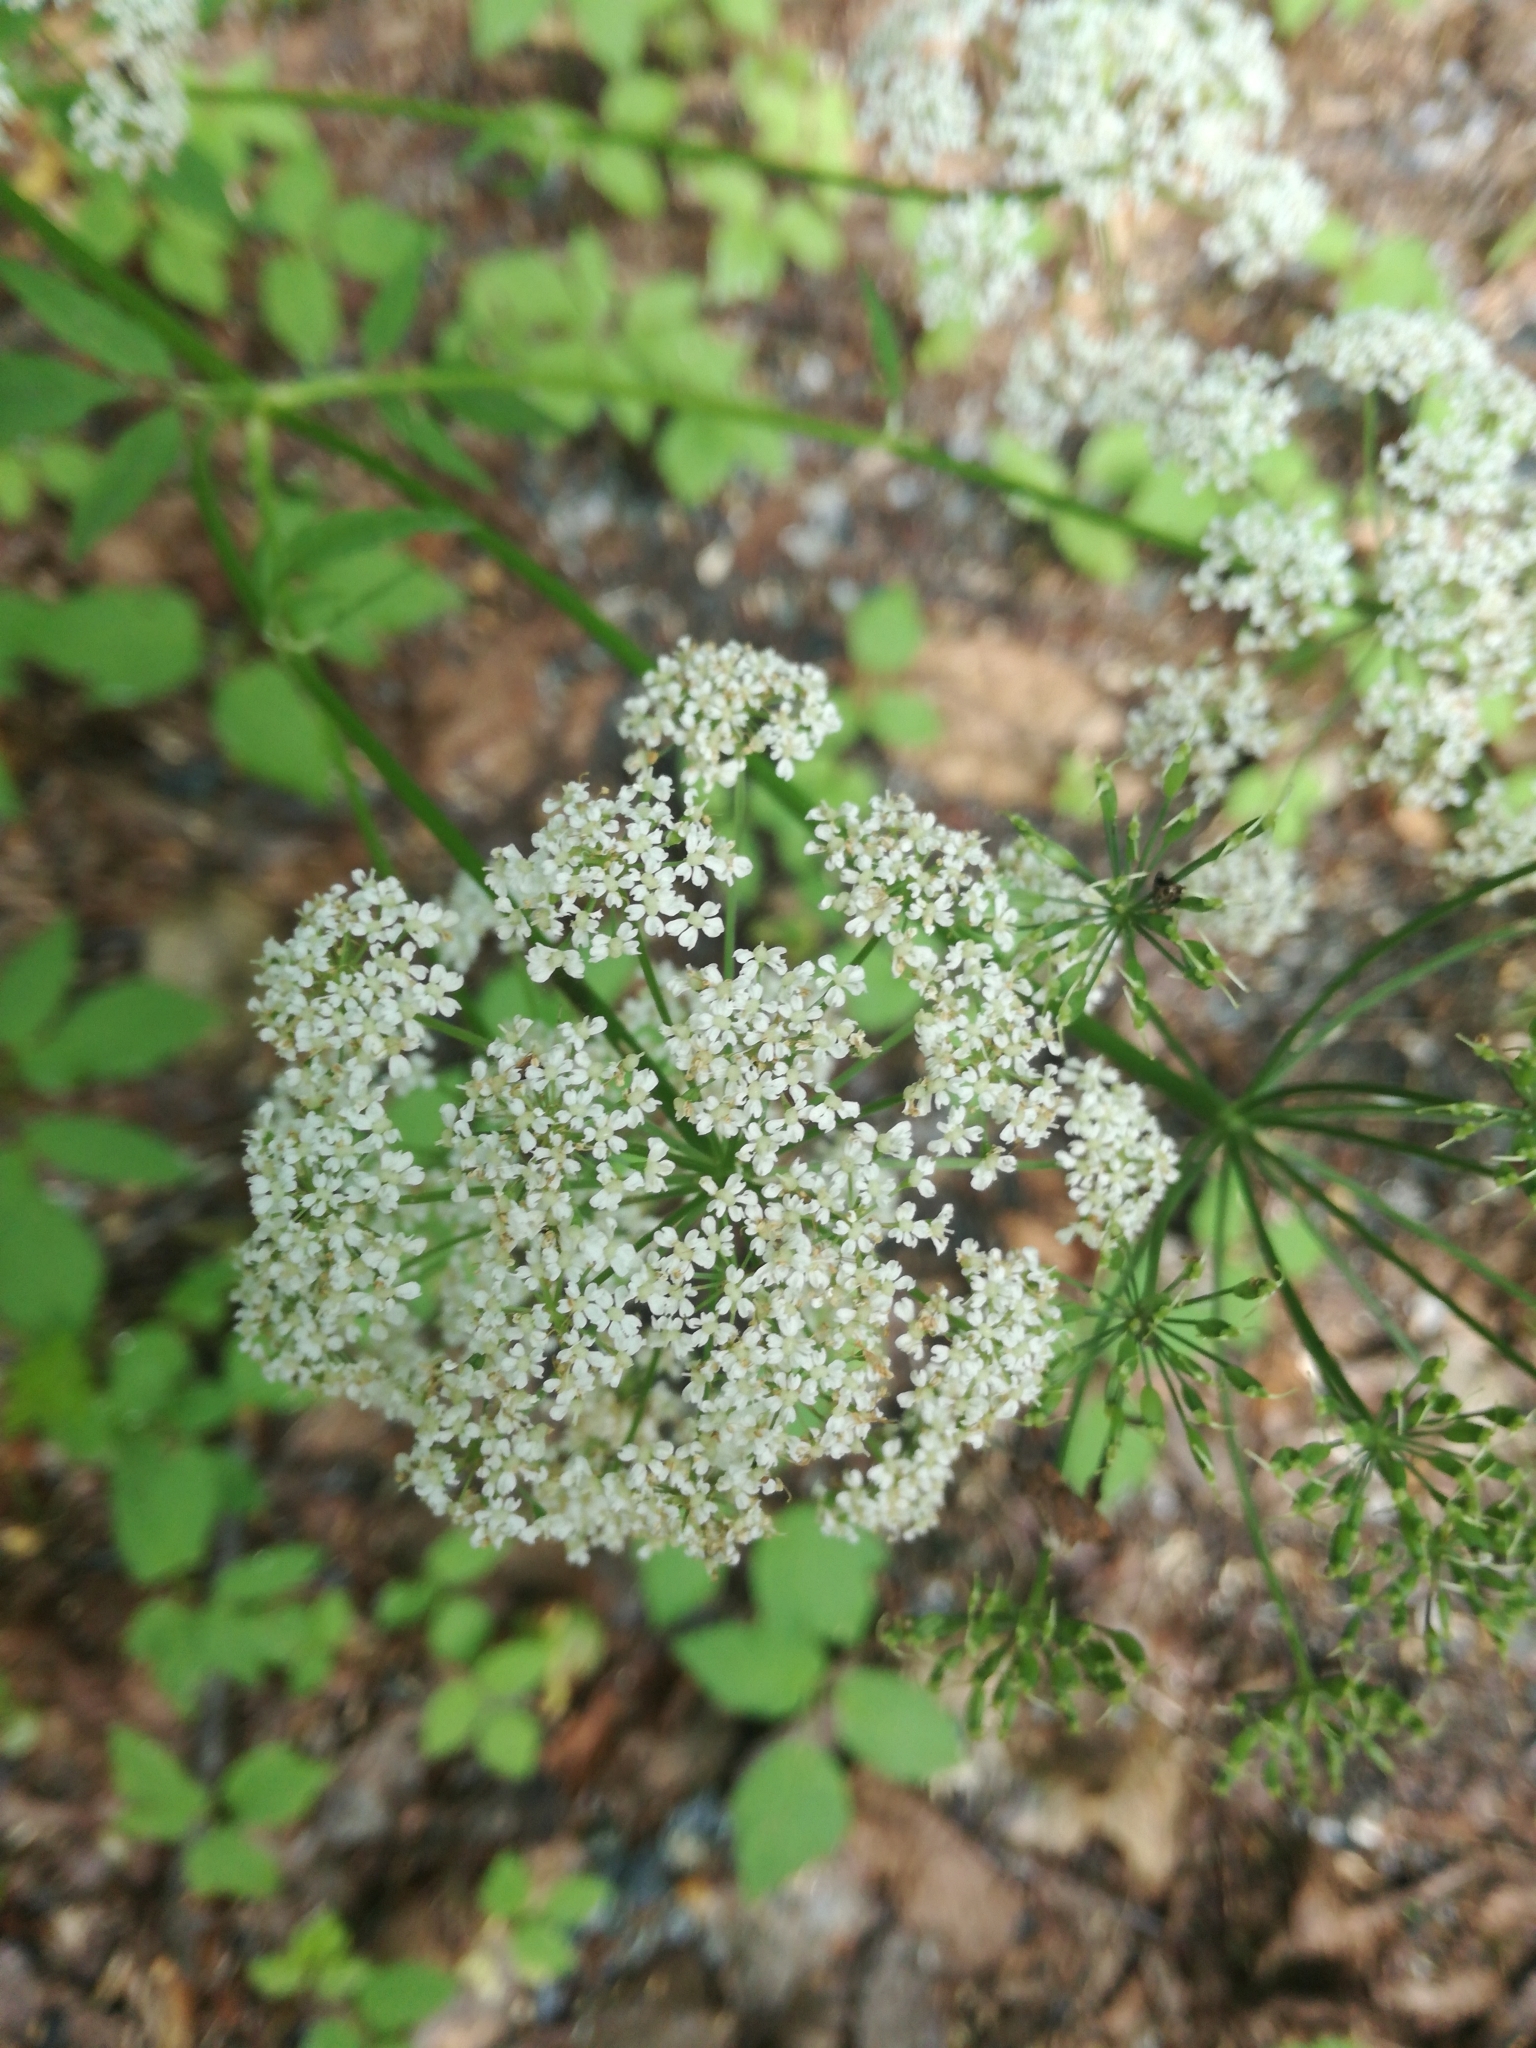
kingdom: Plantae
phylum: Tracheophyta
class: Magnoliopsida
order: Apiales
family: Apiaceae
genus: Aegopodium
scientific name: Aegopodium podagraria
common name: Ground-elder
